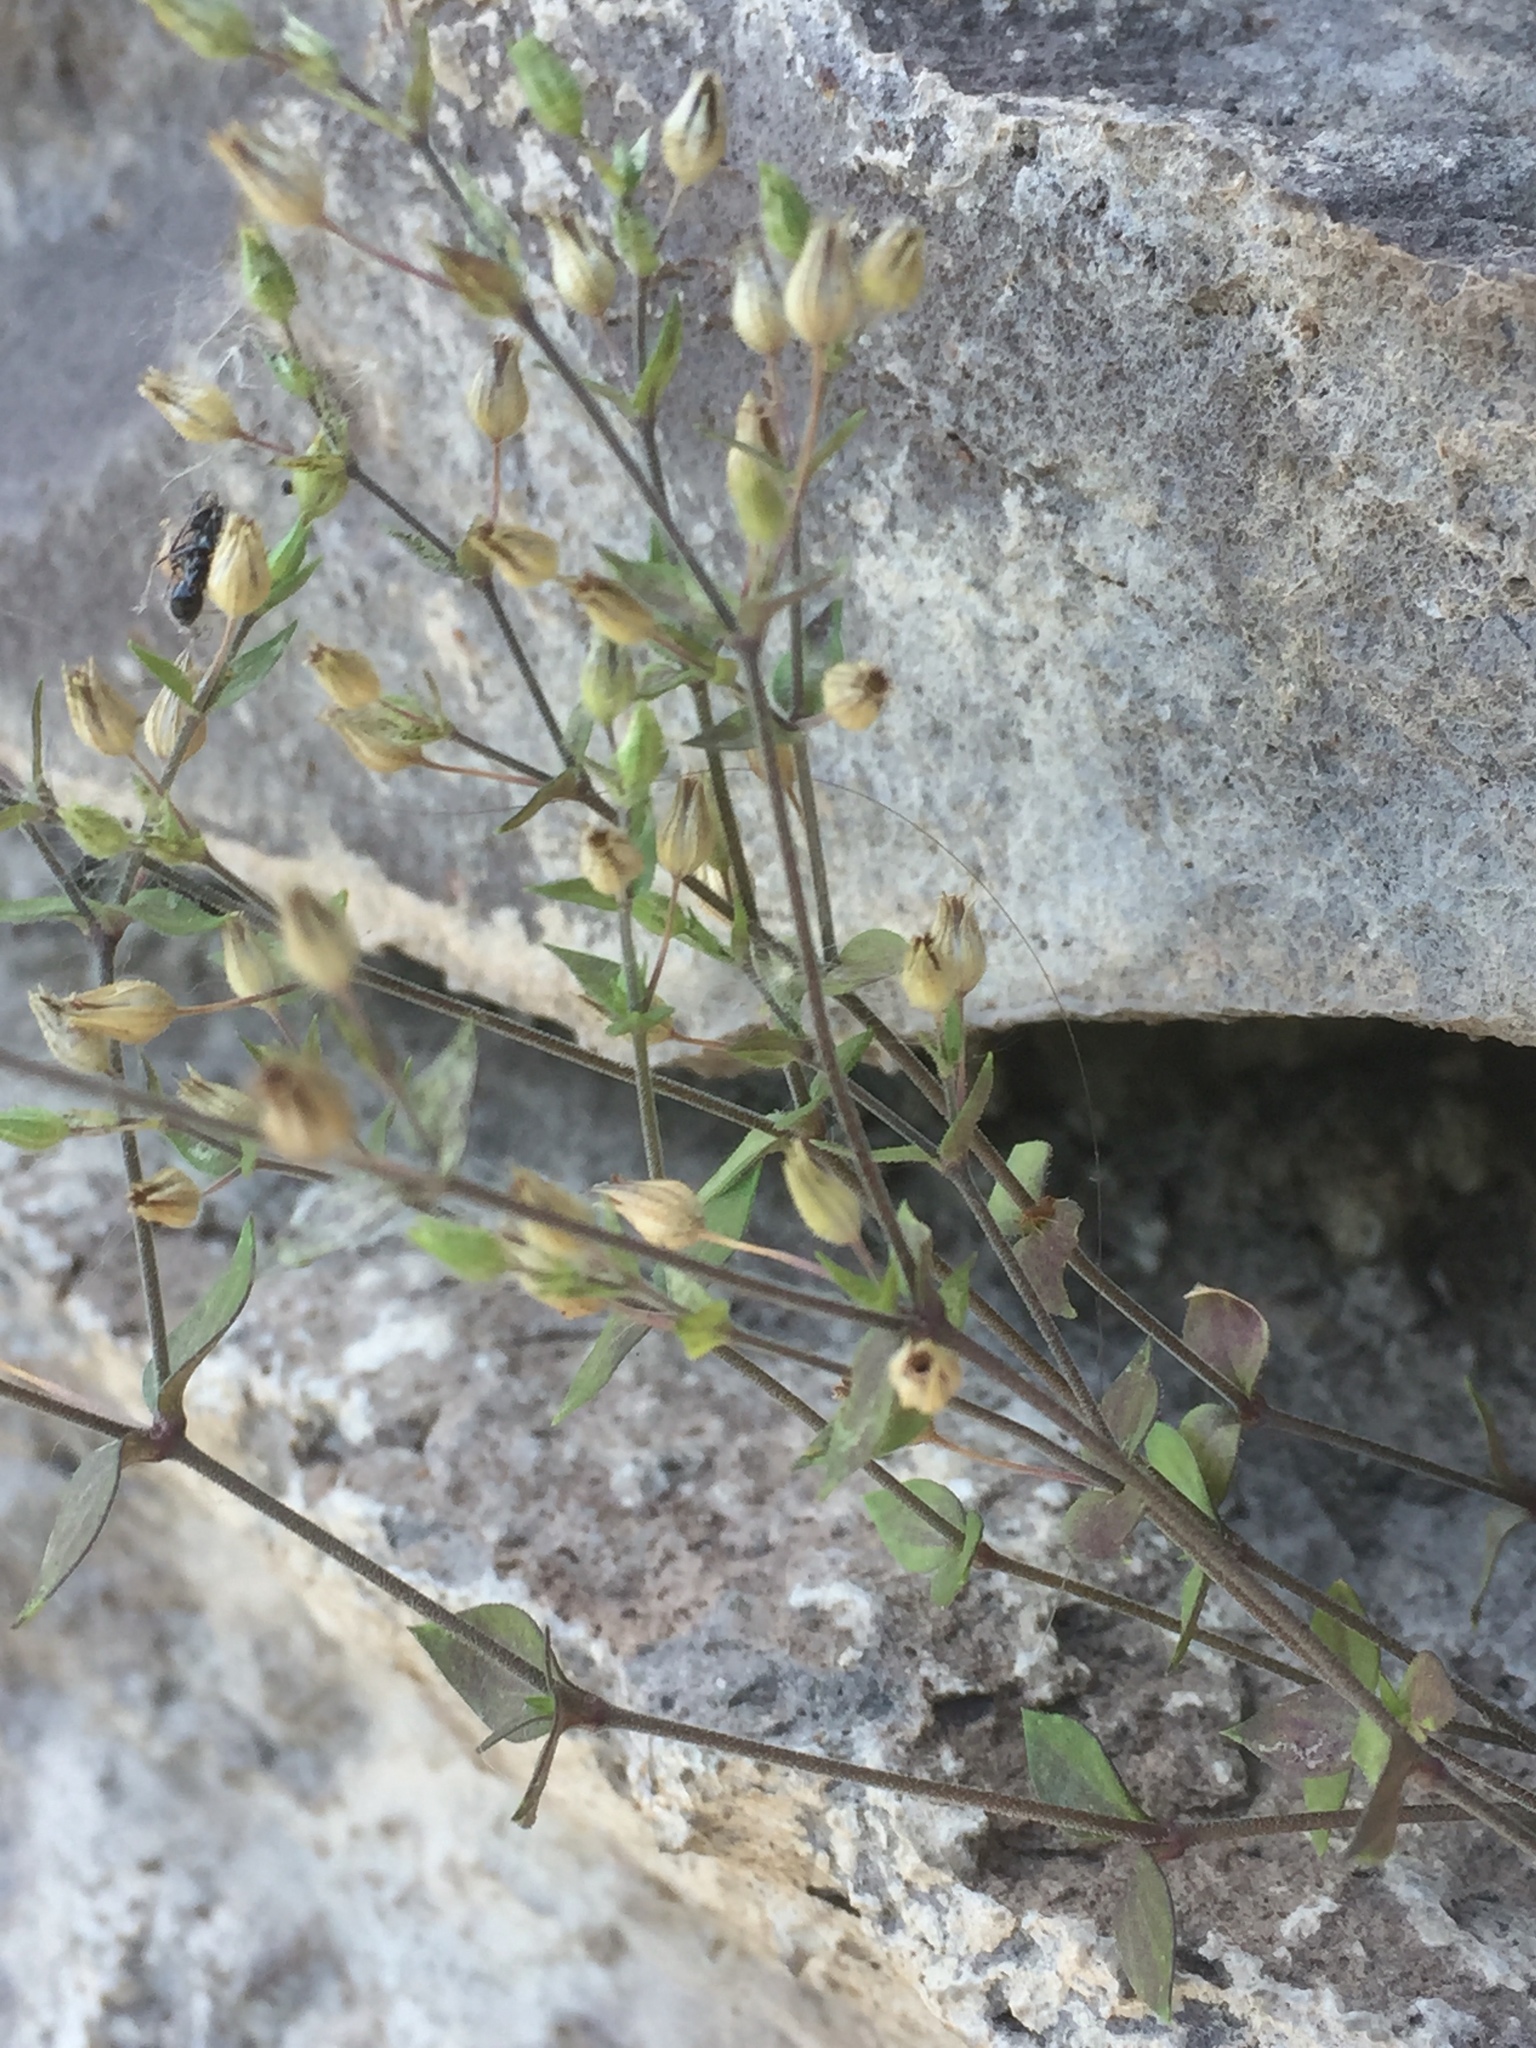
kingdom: Plantae
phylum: Tracheophyta
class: Magnoliopsida
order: Caryophyllales
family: Caryophyllaceae
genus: Arenaria
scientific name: Arenaria serpyllifolia
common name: Thyme-leaved sandwort
